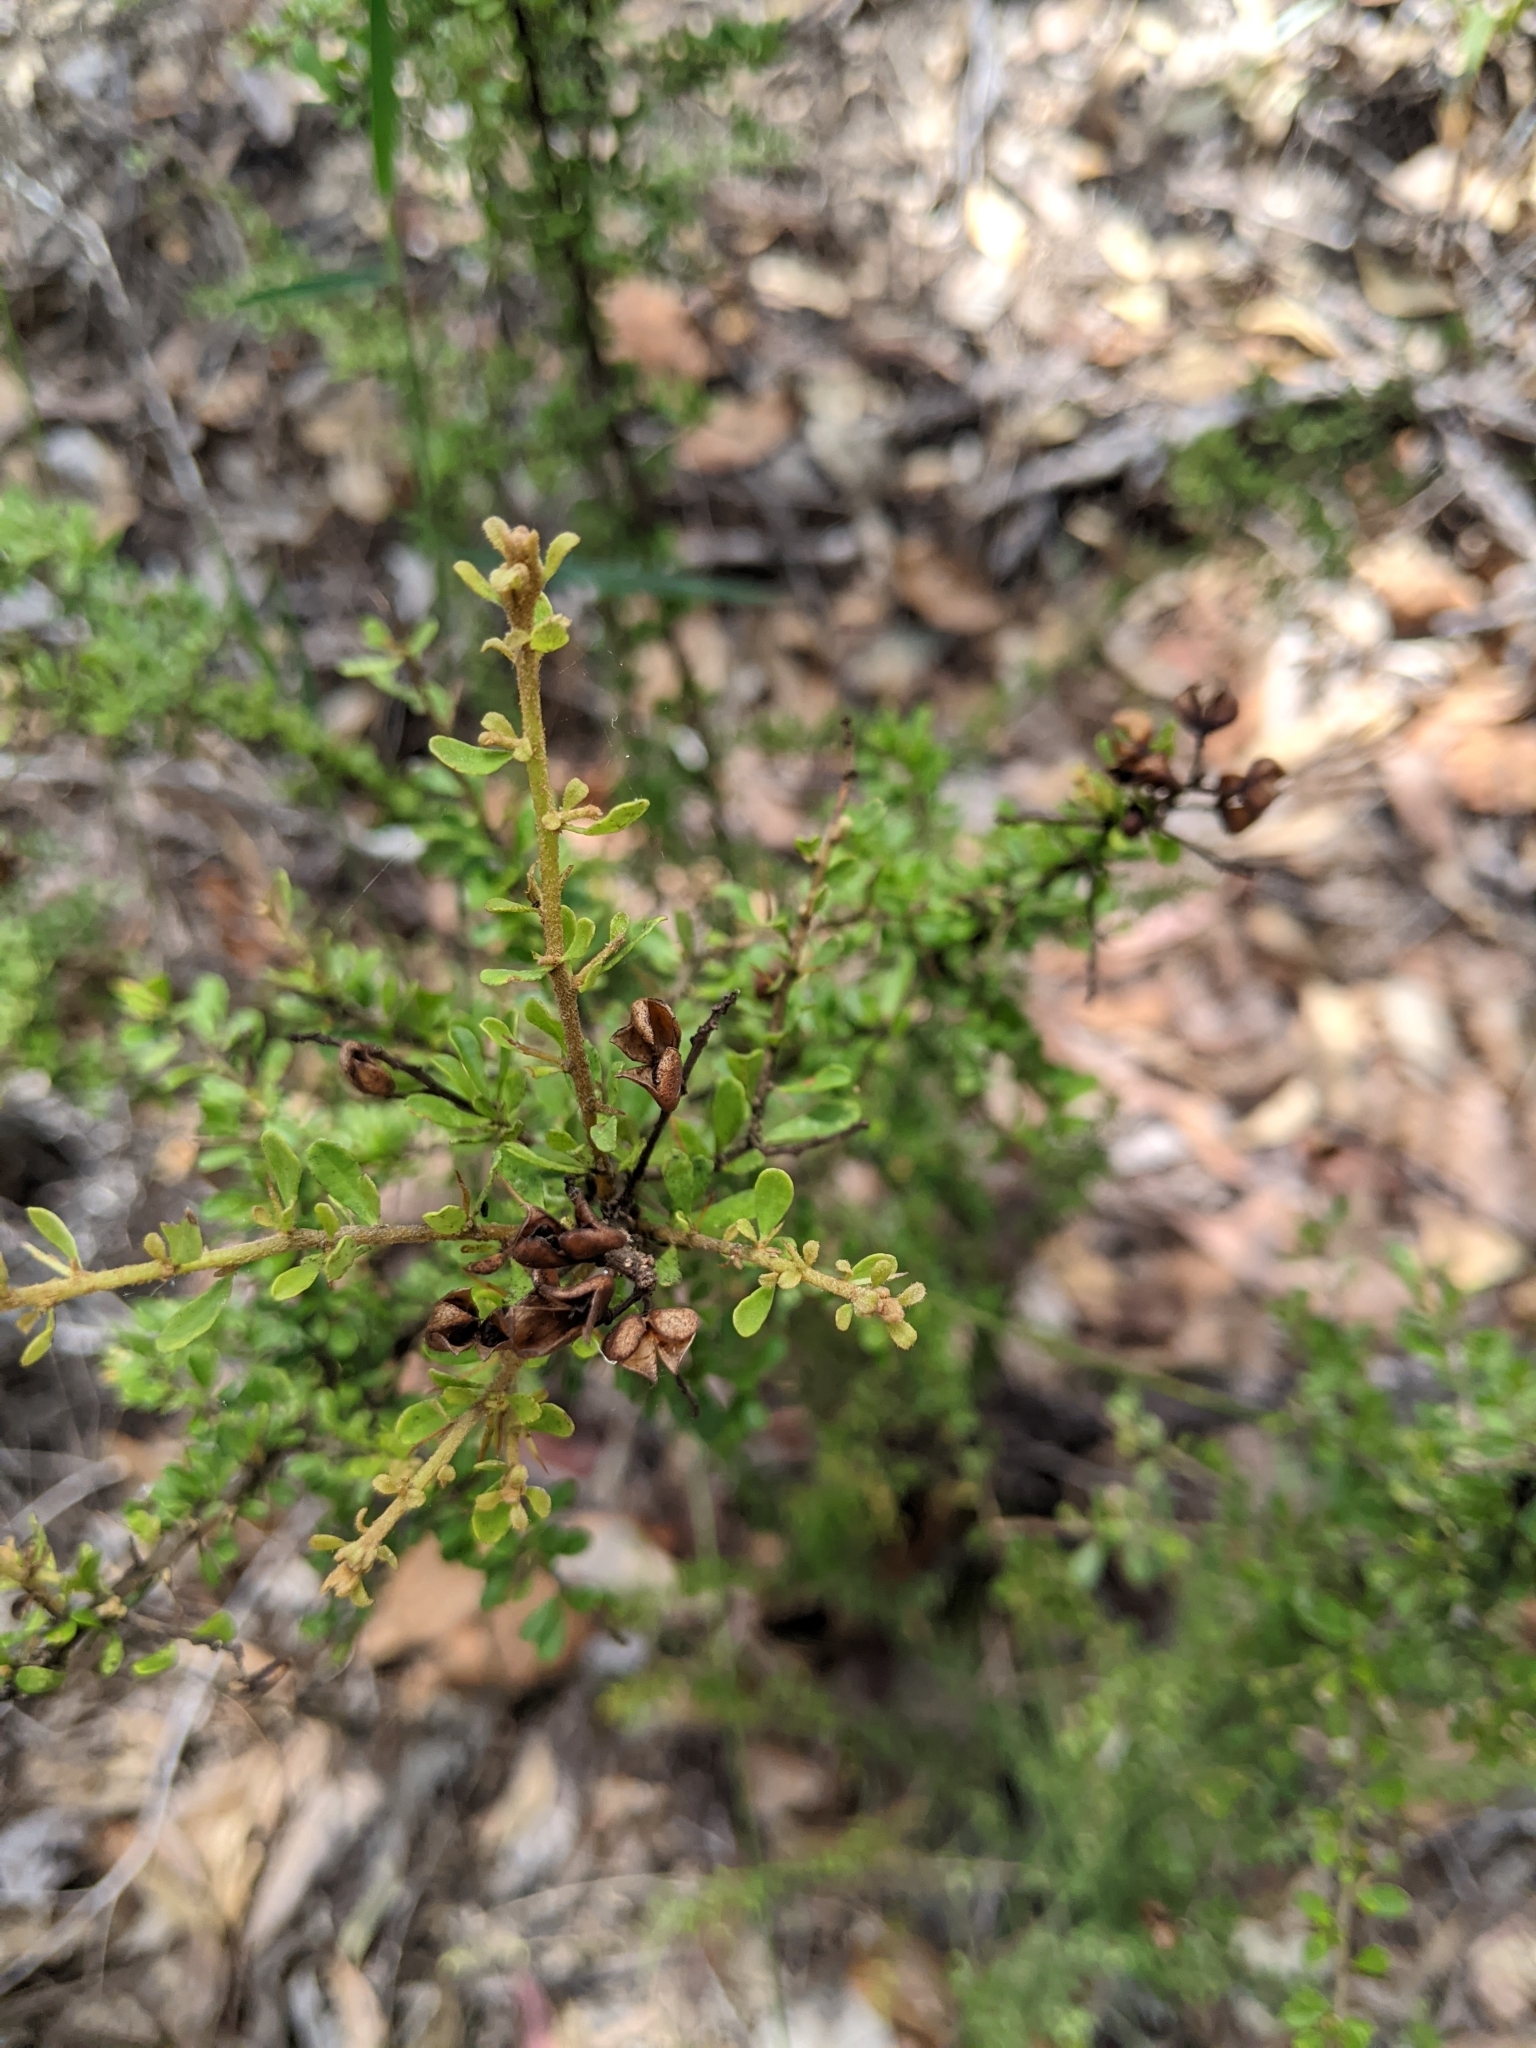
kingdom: Plantae
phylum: Tracheophyta
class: Magnoliopsida
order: Apiales
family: Pittosporaceae
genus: Bursaria
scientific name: Bursaria spinosa
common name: Australian blackthorn
